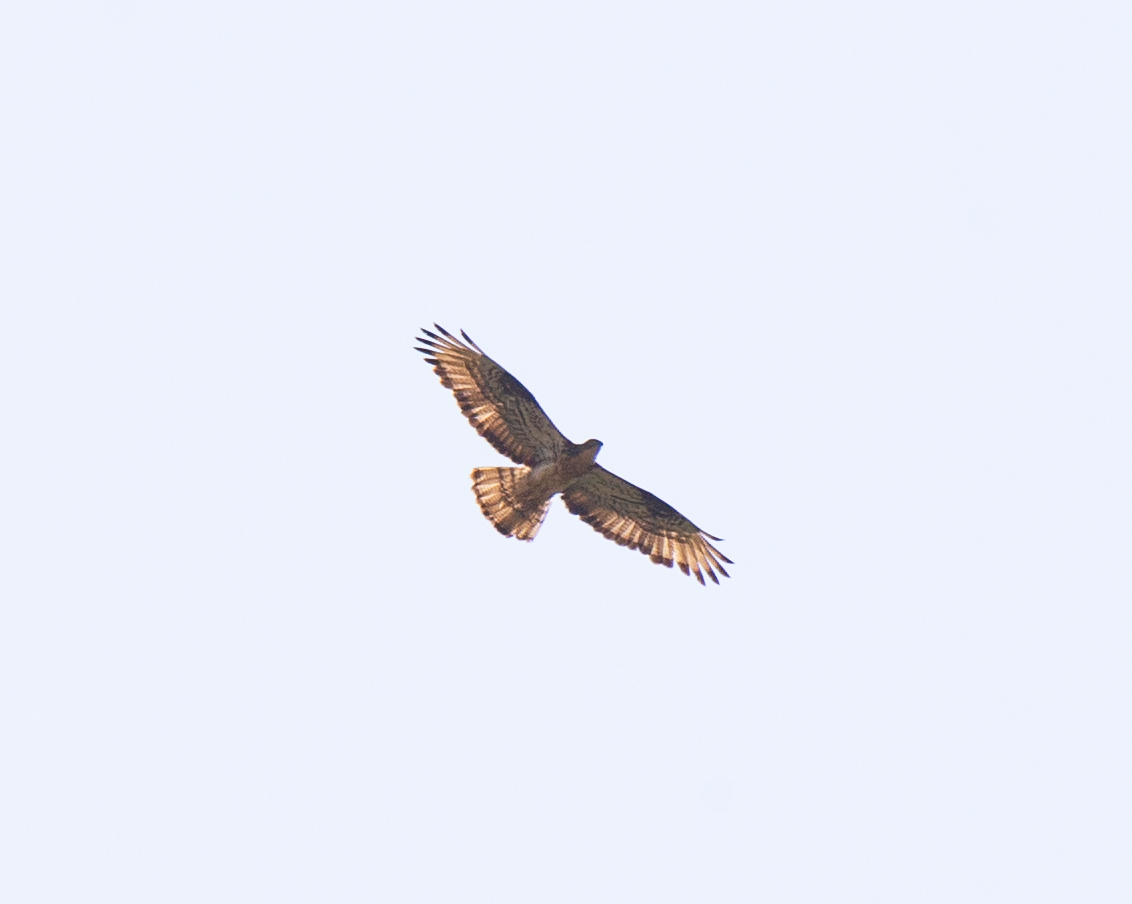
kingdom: Animalia
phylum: Chordata
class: Aves
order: Accipitriformes
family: Accipitridae
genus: Pernis
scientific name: Pernis apivorus
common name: European honey buzzard
